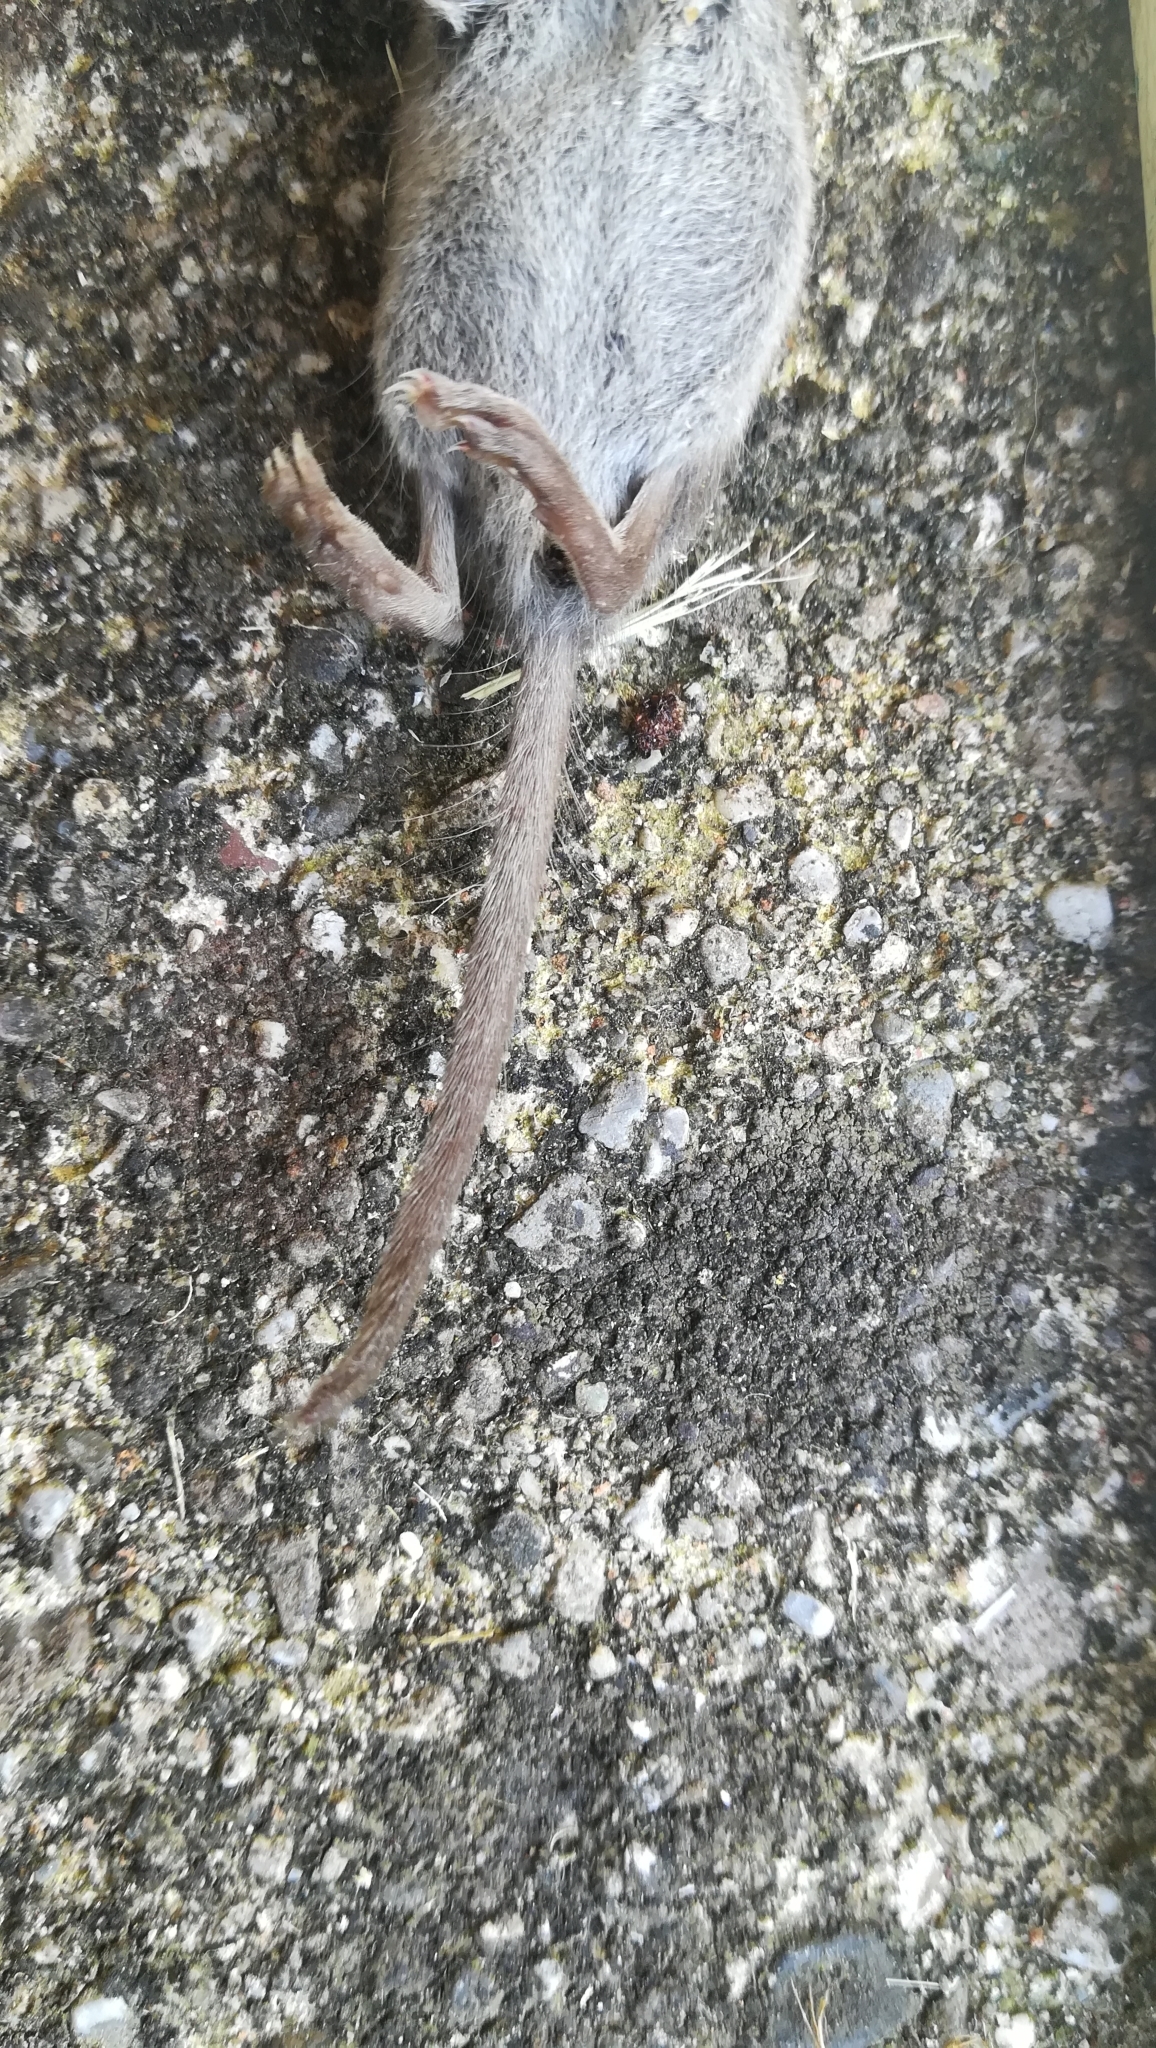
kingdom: Animalia
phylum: Chordata
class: Mammalia
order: Soricomorpha
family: Soricidae
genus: Crocidura
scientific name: Crocidura suaveolens
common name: Lesser white-toothed shrew
